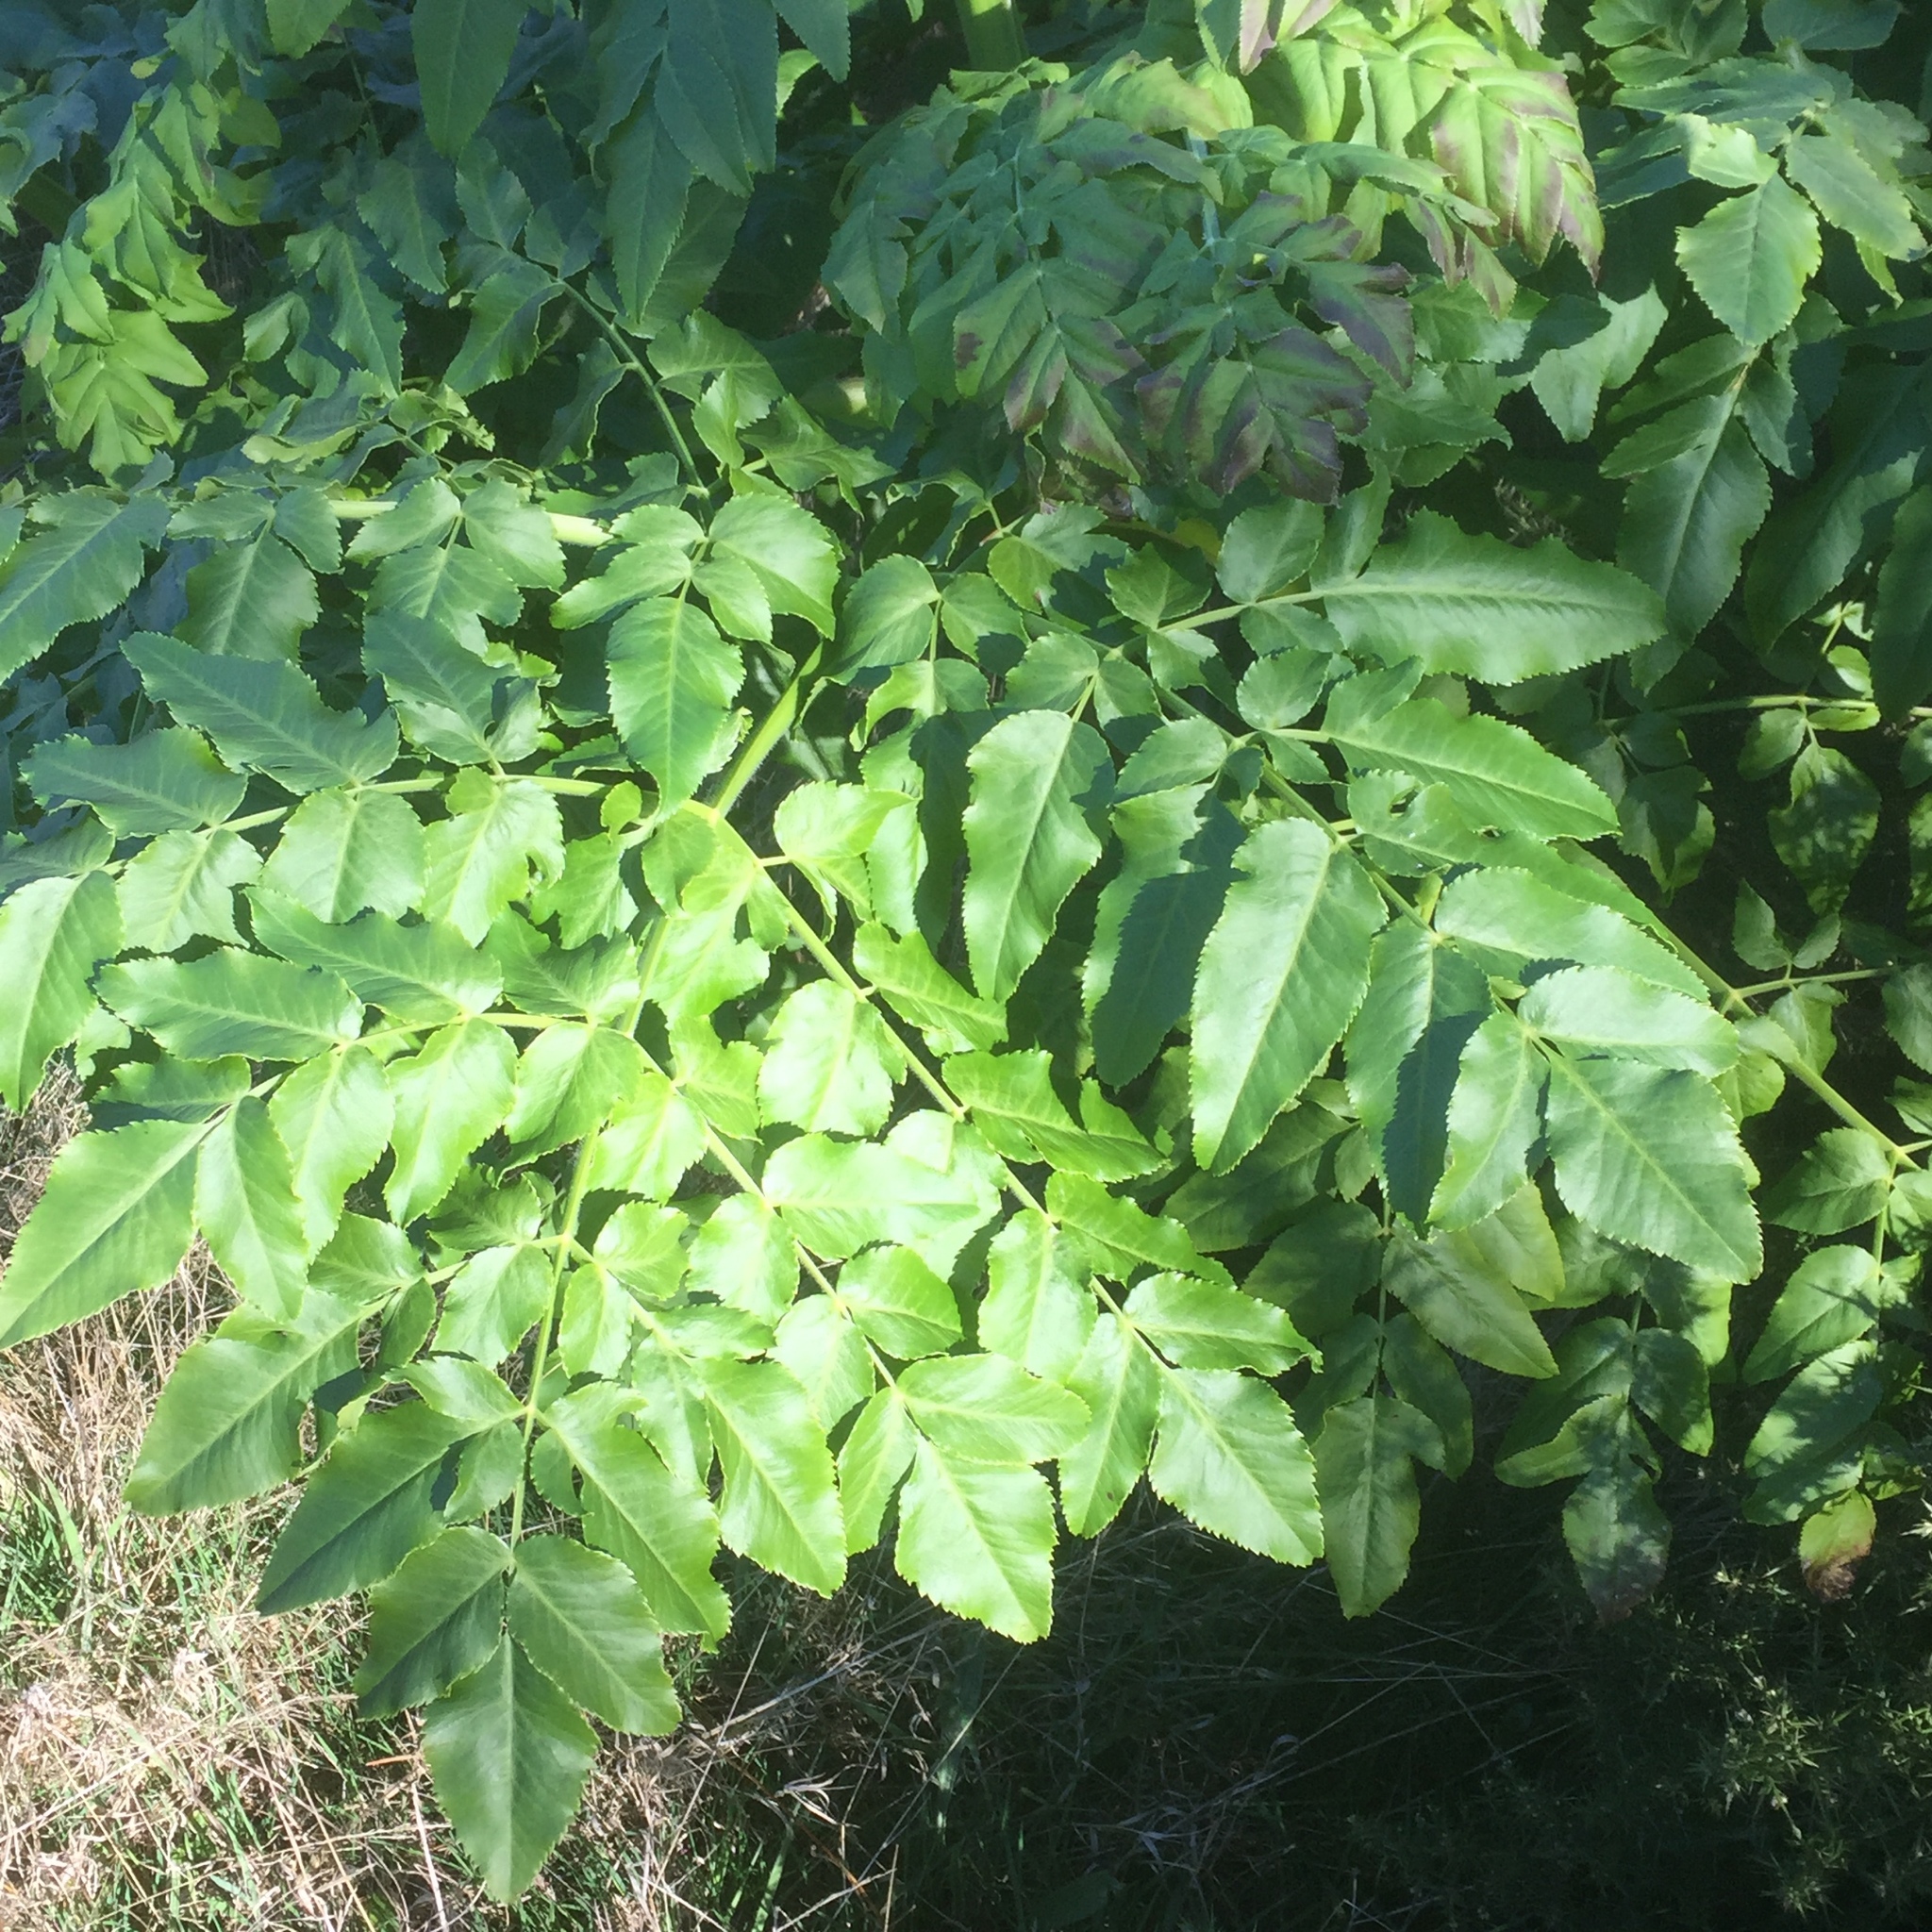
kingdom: Plantae
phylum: Tracheophyta
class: Magnoliopsida
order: Apiales
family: Apiaceae
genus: Daucus
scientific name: Daucus decipiens
